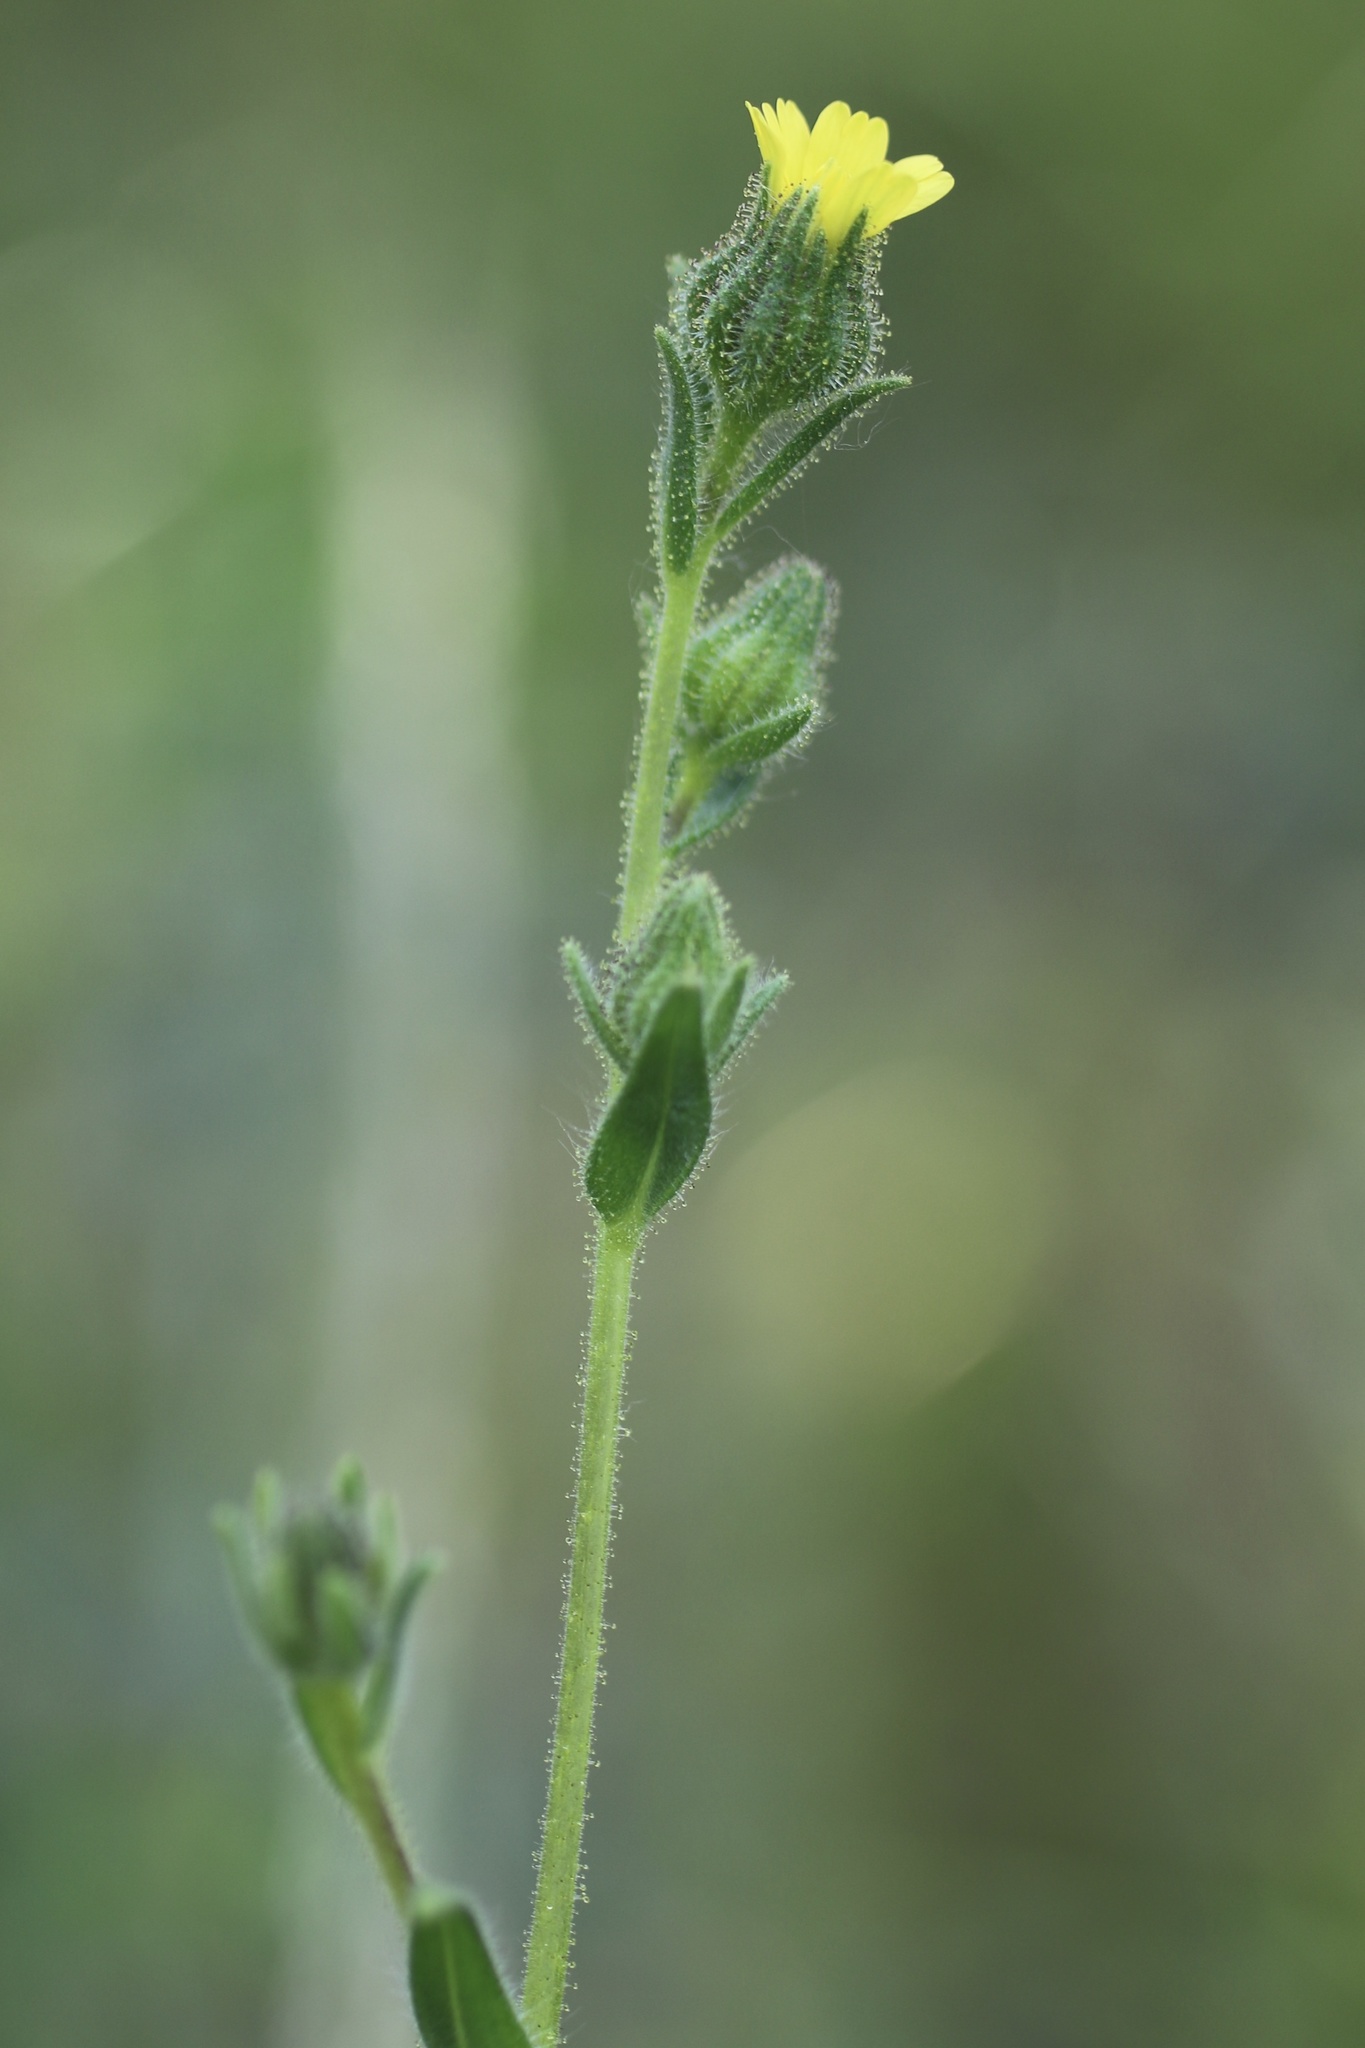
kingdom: Plantae
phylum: Tracheophyta
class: Magnoliopsida
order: Asterales
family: Asteraceae
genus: Madia
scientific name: Madia gracilis
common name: Grassy tarweed
